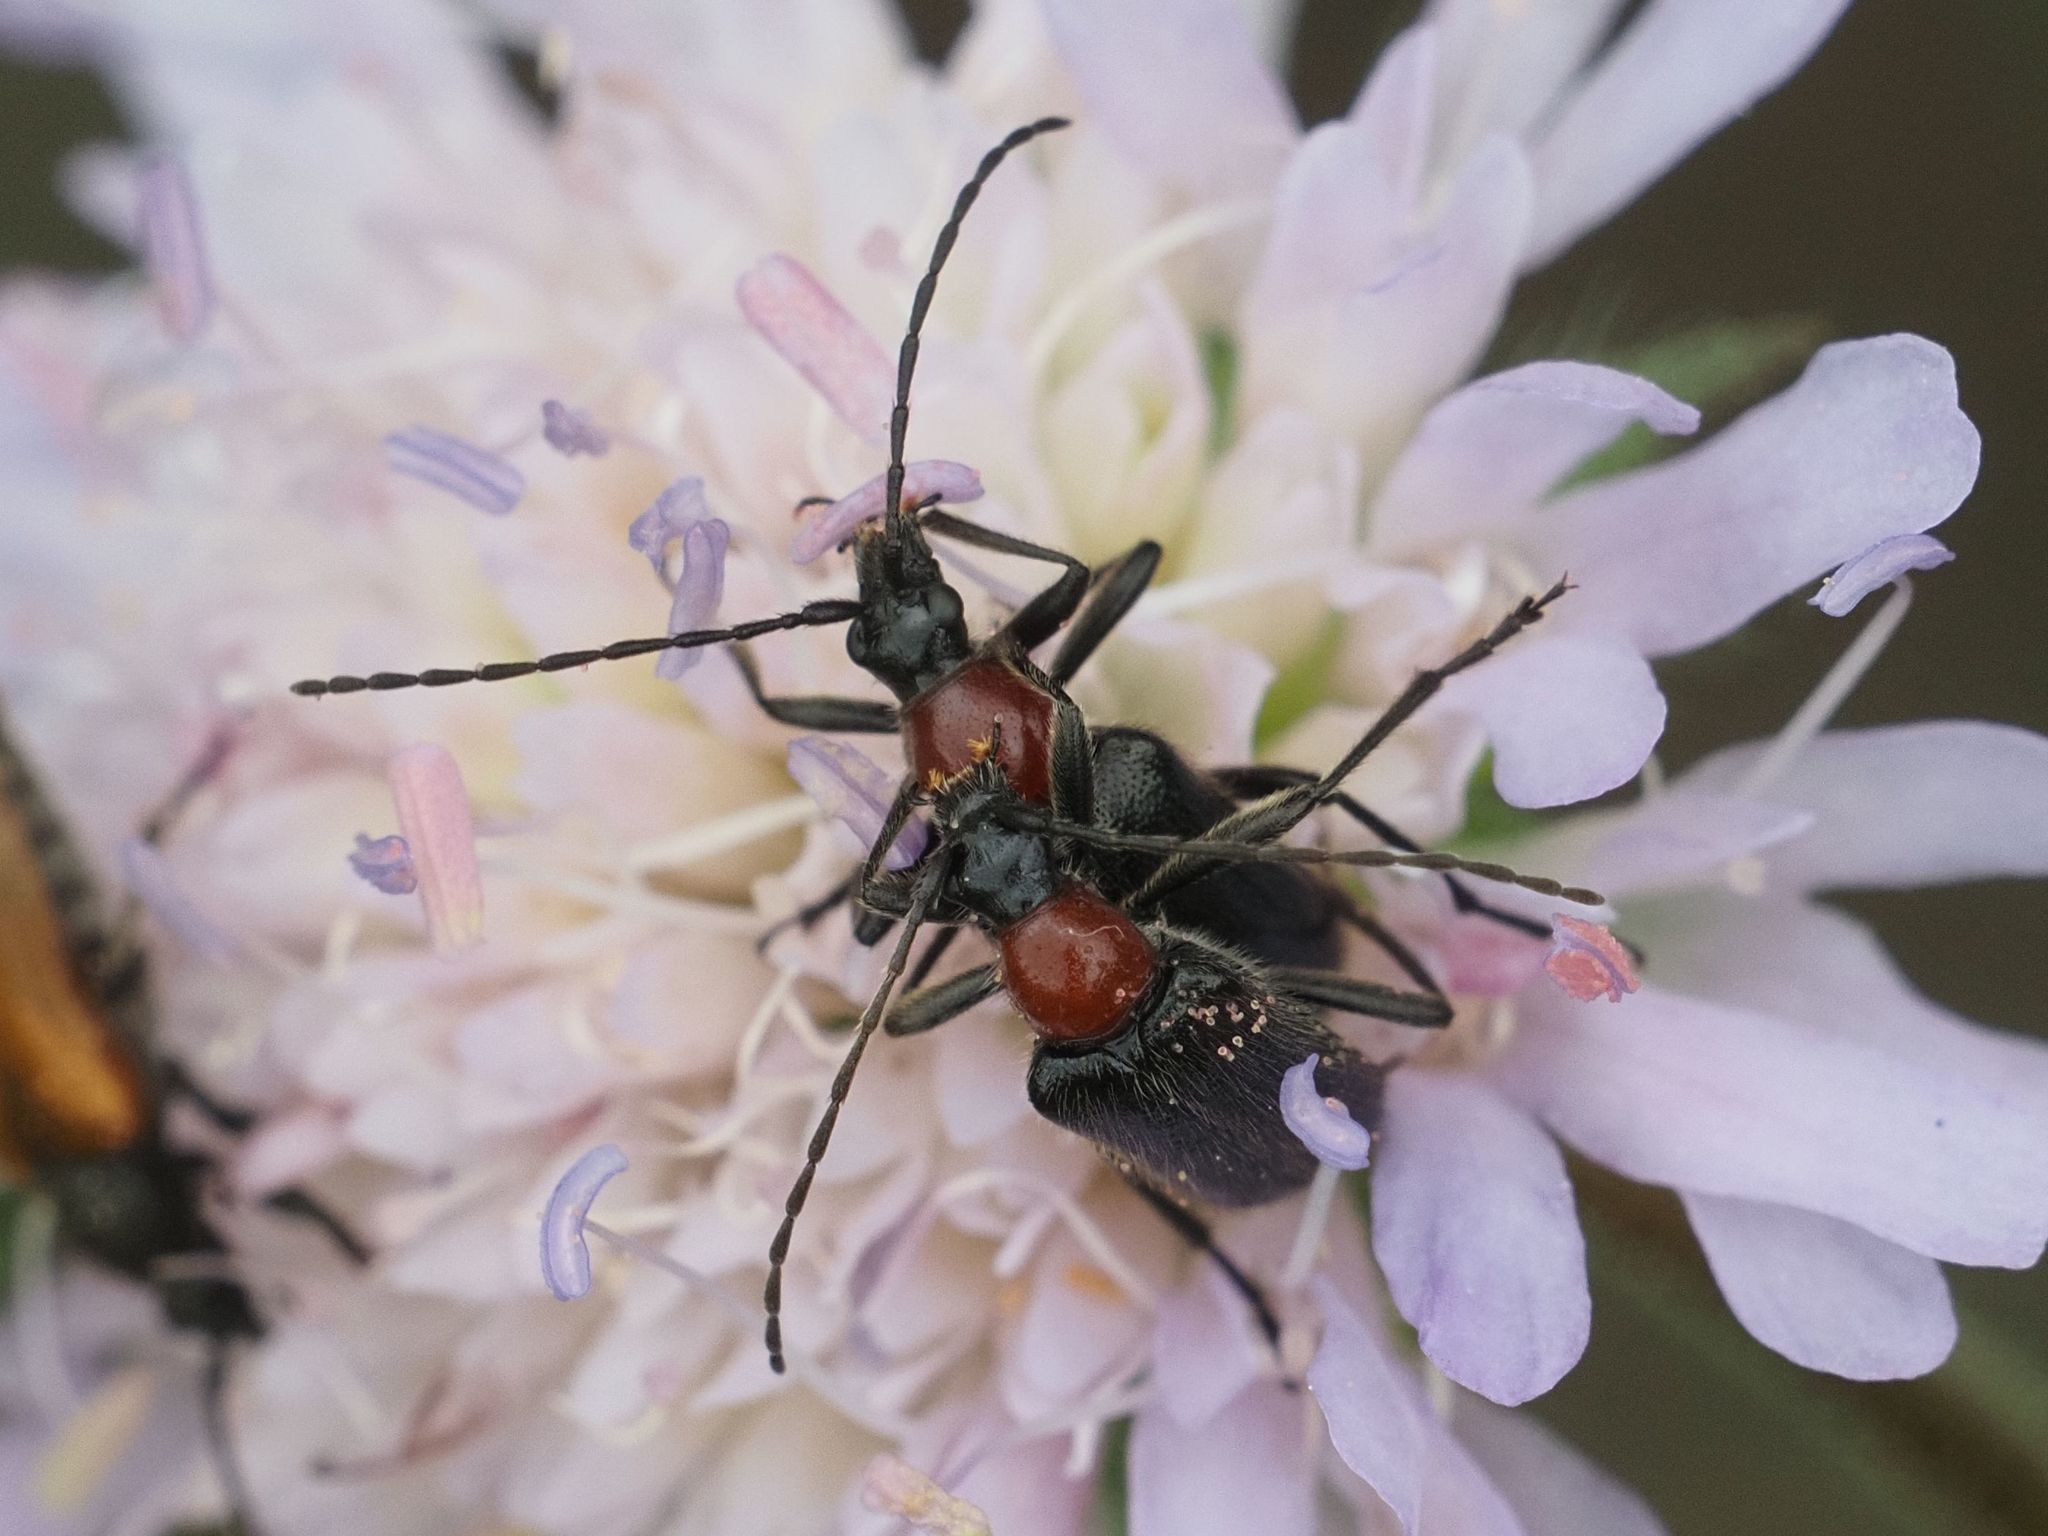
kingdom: Animalia
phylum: Arthropoda
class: Insecta
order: Coleoptera
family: Cerambycidae
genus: Dinoptera
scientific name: Dinoptera collaris
